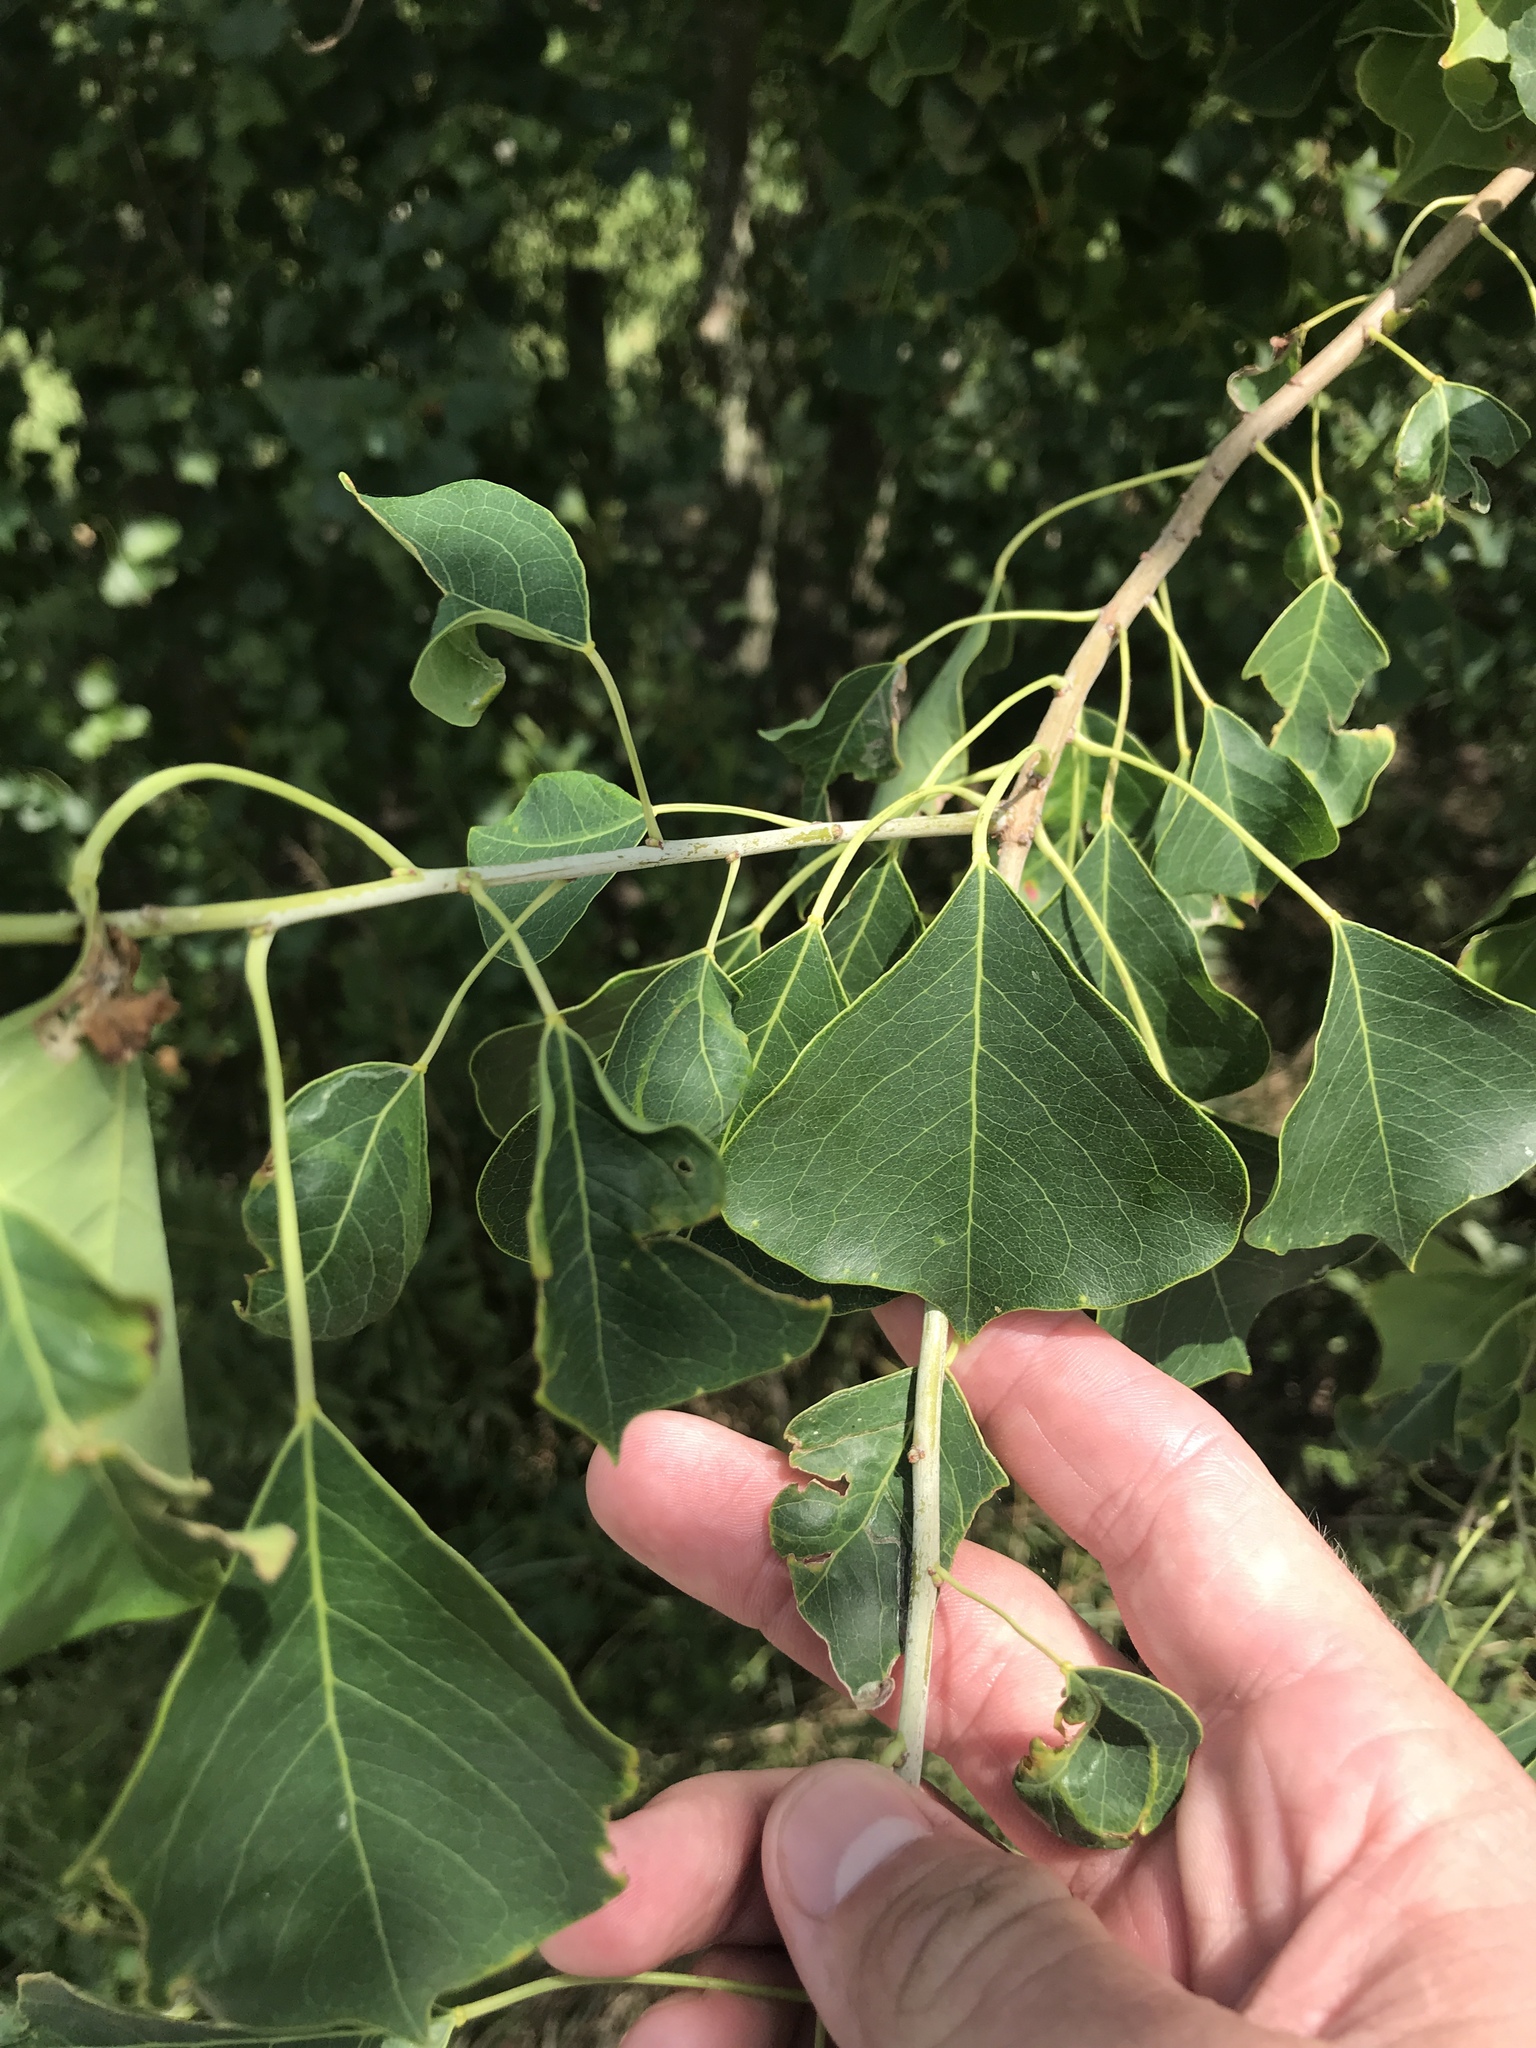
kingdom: Plantae
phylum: Tracheophyta
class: Magnoliopsida
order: Malpighiales
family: Euphorbiaceae
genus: Triadica
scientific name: Triadica sebifera
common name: Chinese tallow
